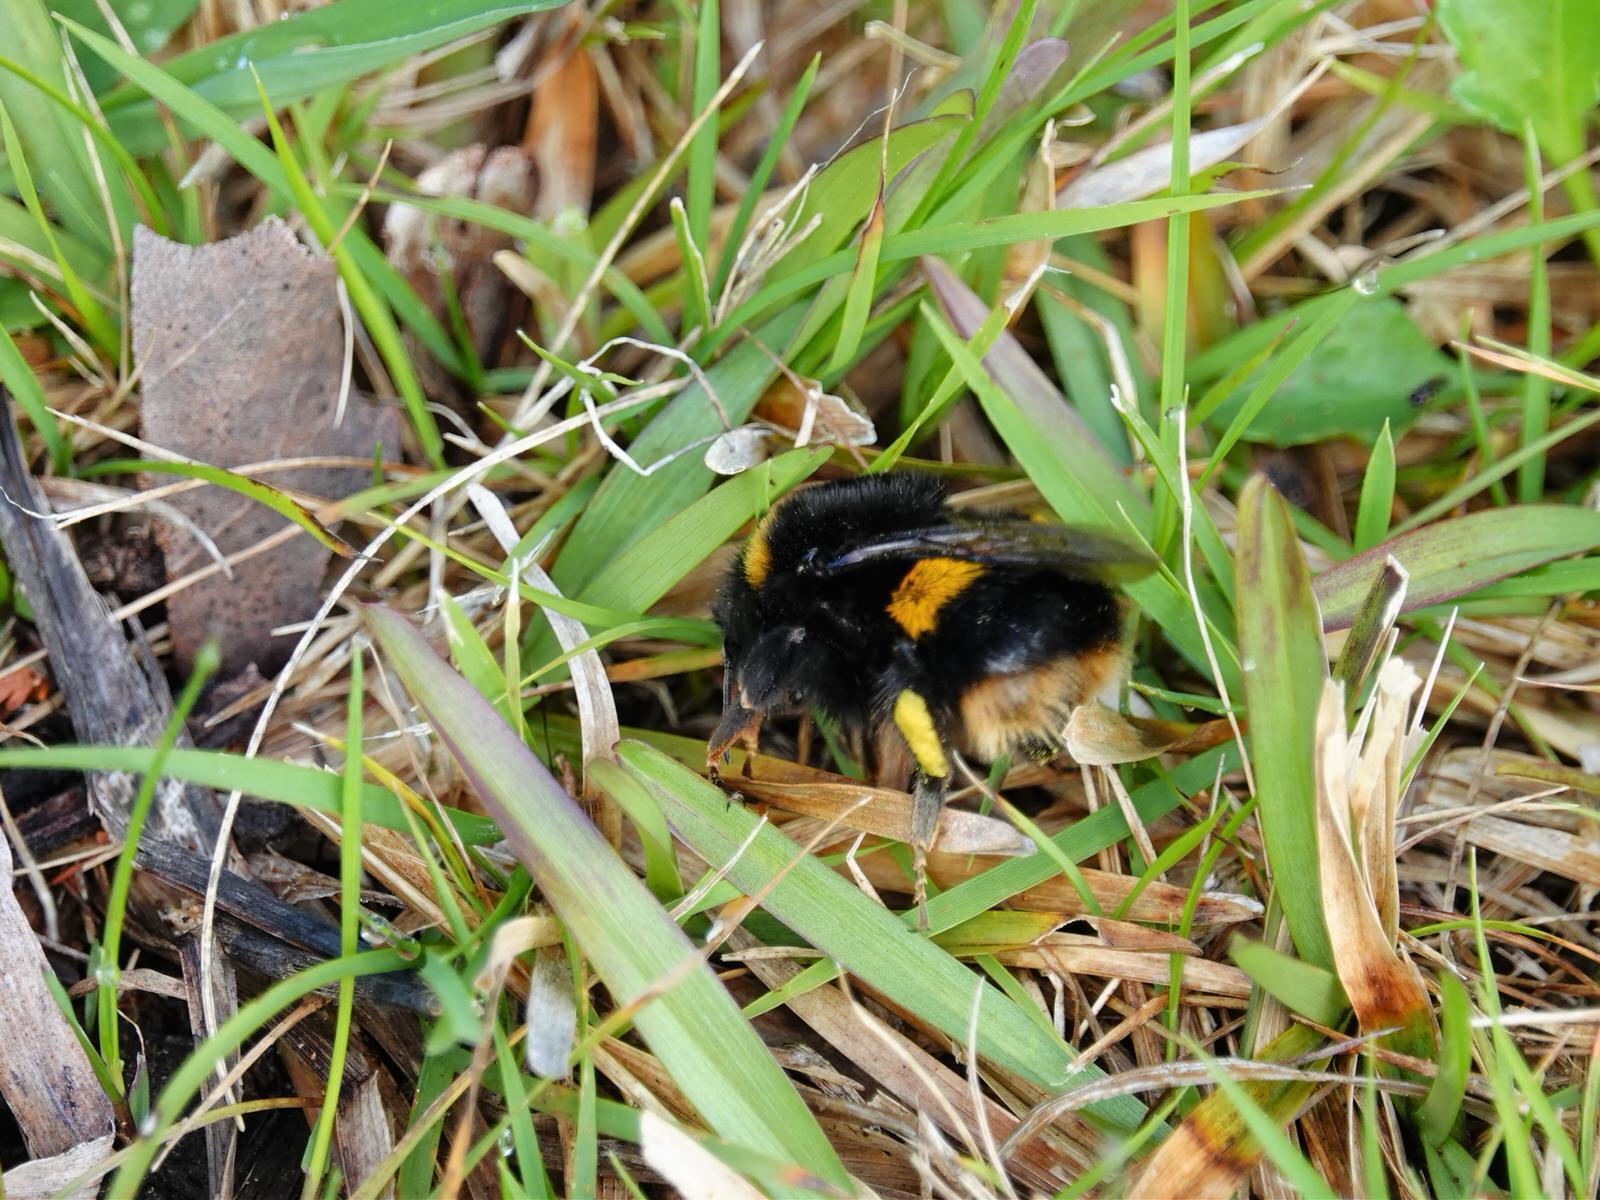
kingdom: Animalia
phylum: Arthropoda
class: Insecta
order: Hymenoptera
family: Apidae
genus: Bombus
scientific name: Bombus terrestris
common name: Buff-tailed bumblebee
